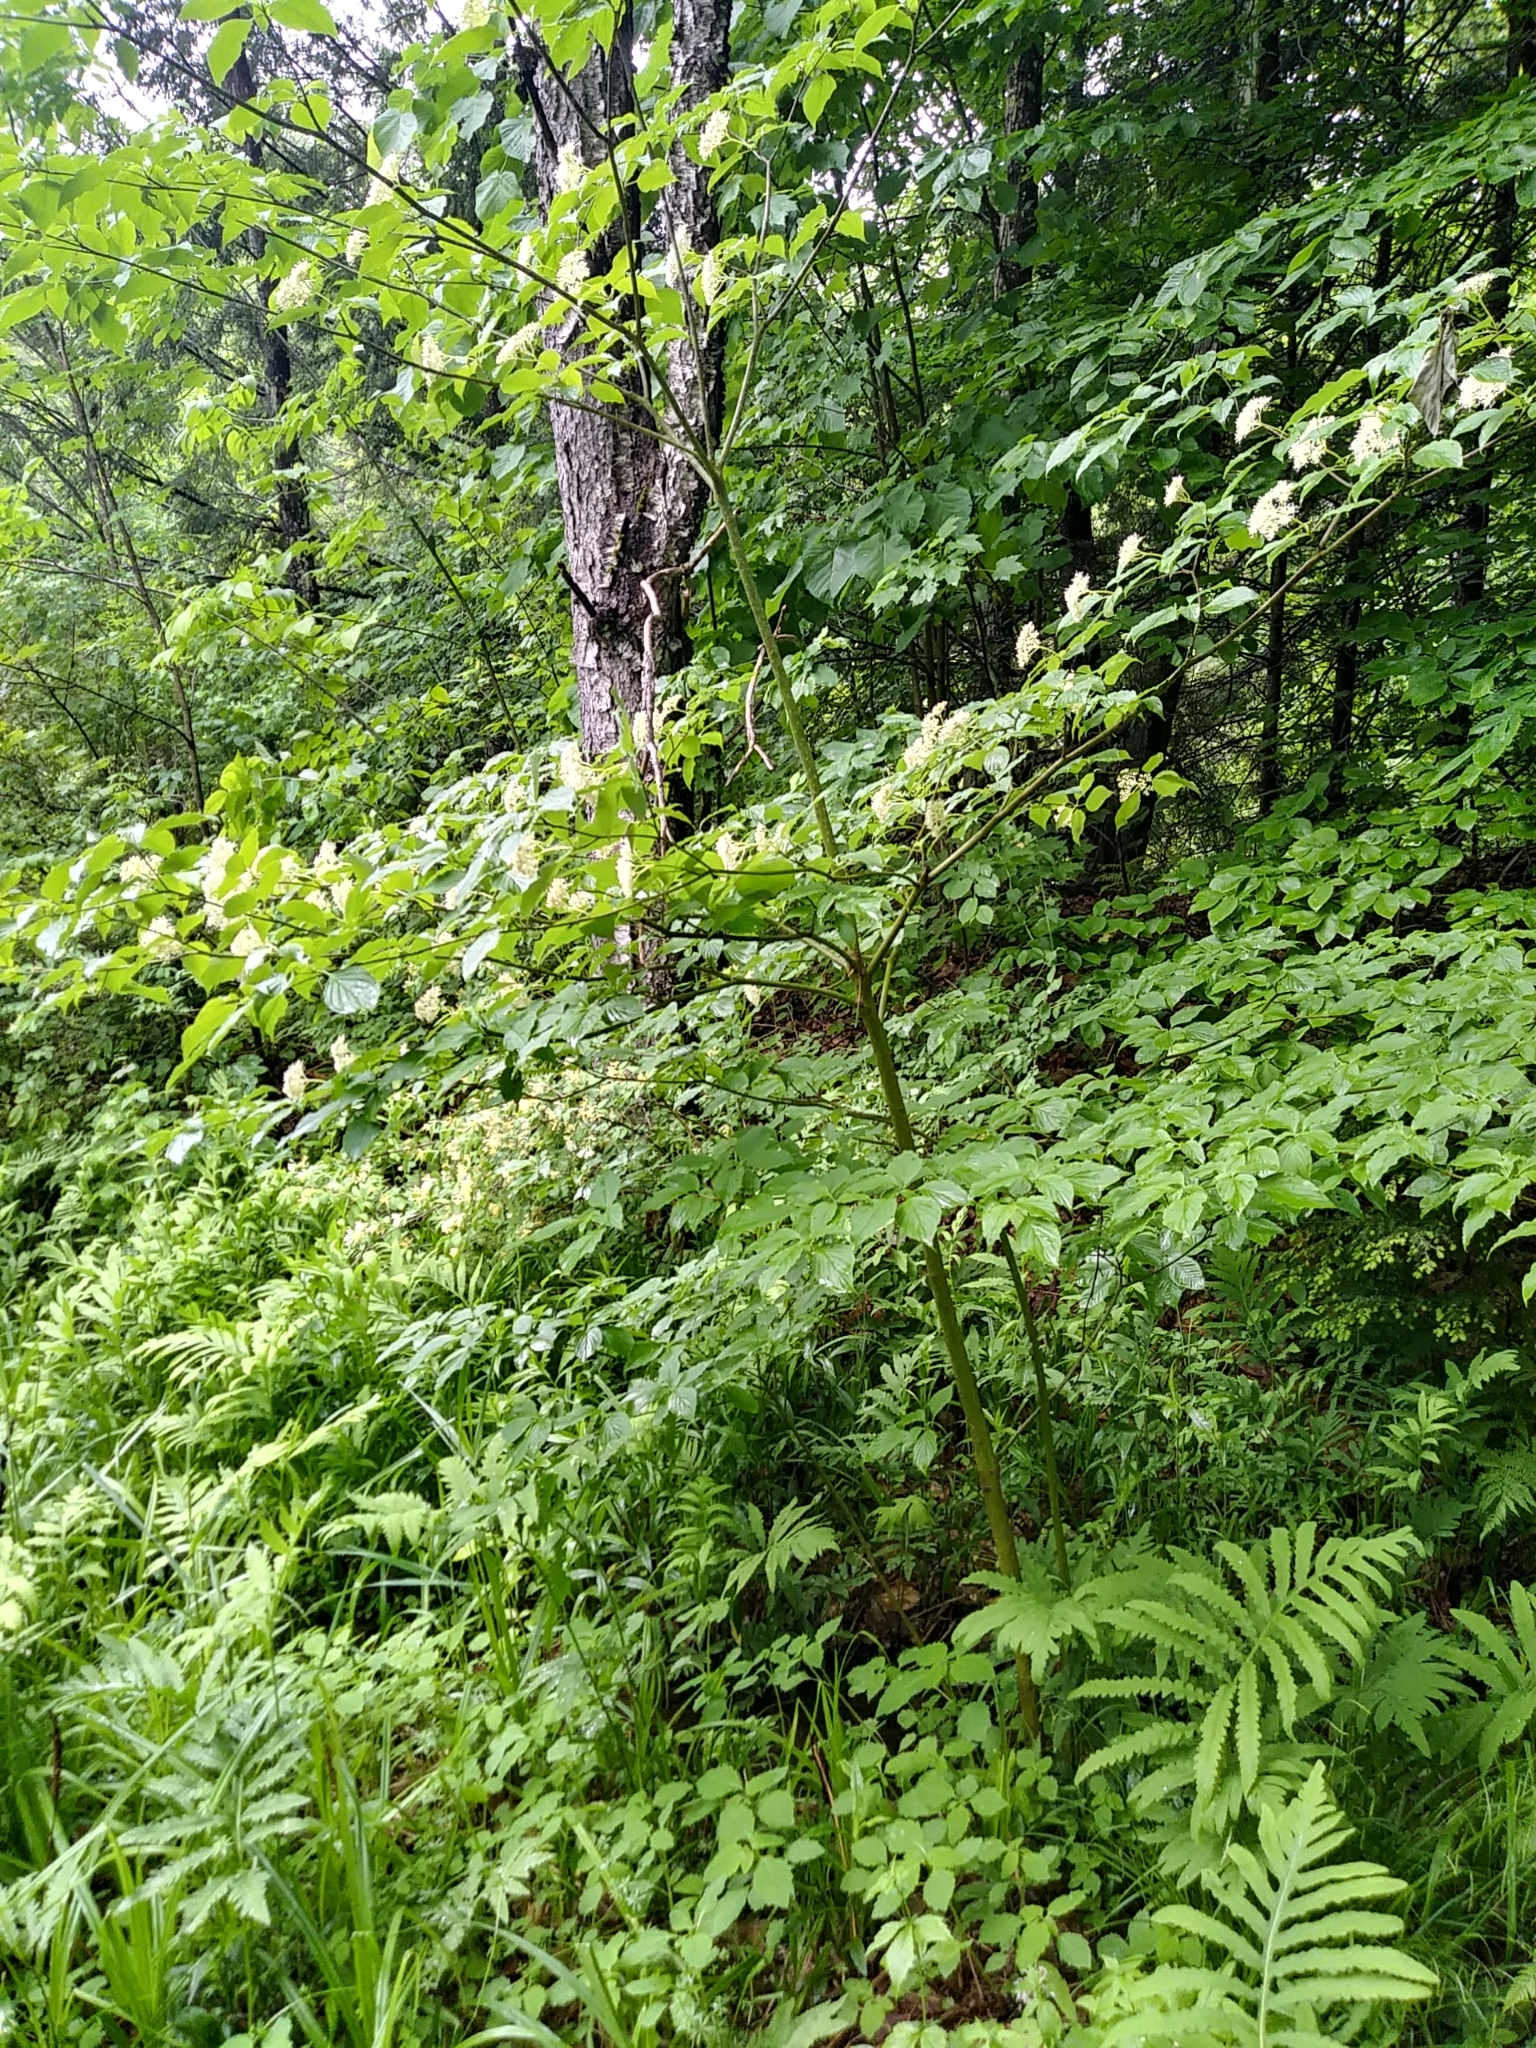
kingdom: Plantae
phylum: Tracheophyta
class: Magnoliopsida
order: Cornales
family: Cornaceae
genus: Cornus
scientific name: Cornus alternifolia
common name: Pagoda dogwood
